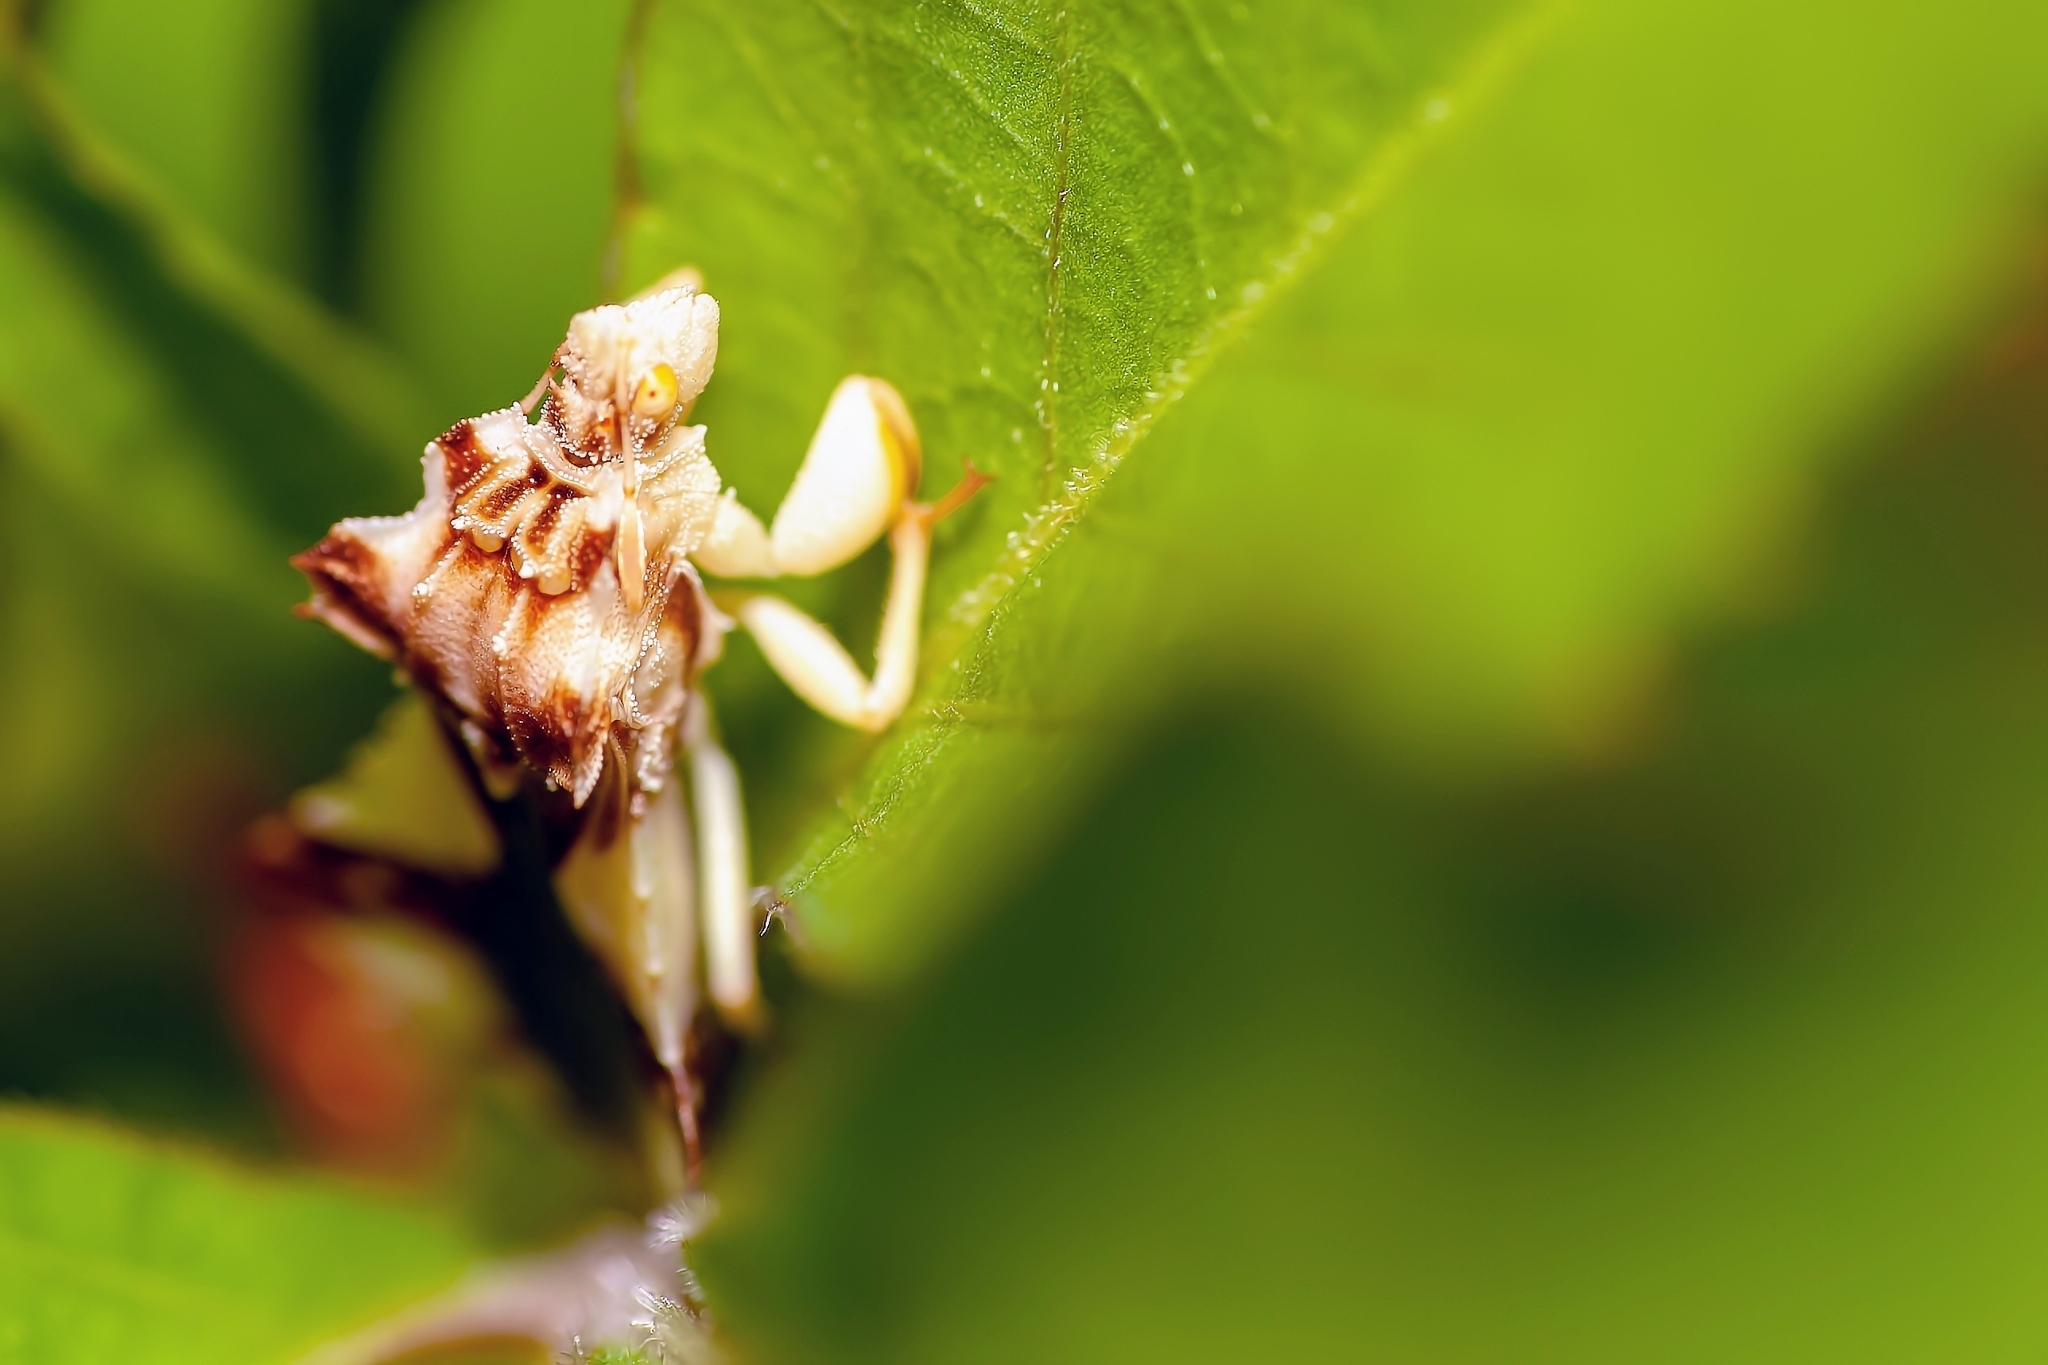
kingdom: Animalia
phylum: Arthropoda
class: Insecta
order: Hemiptera
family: Reduviidae
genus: Phymata
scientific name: Phymata
